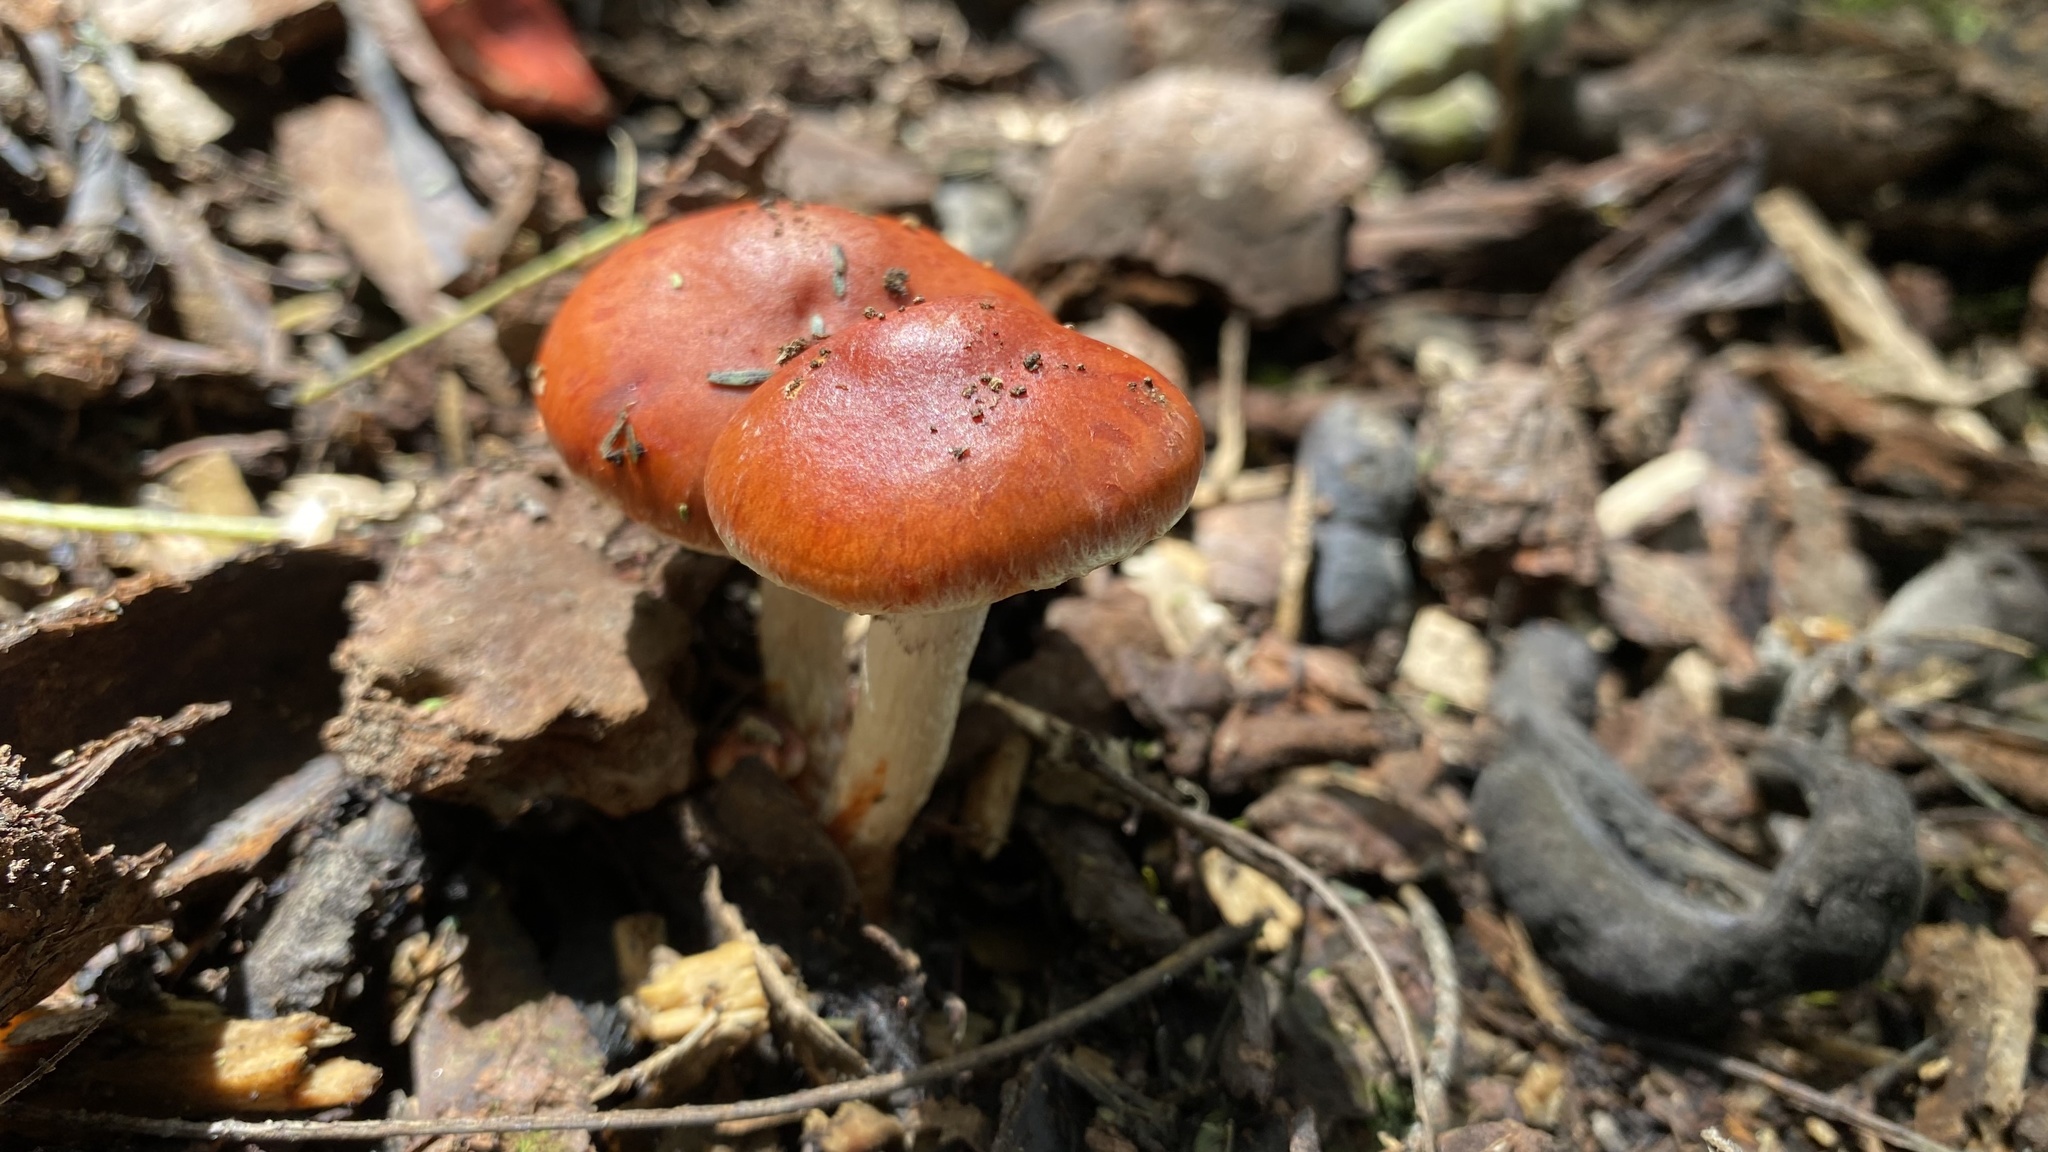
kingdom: Fungi
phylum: Basidiomycota
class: Agaricomycetes
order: Agaricales
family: Strophariaceae
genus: Leratiomyces
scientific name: Leratiomyces ceres
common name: Redlead roundhead
